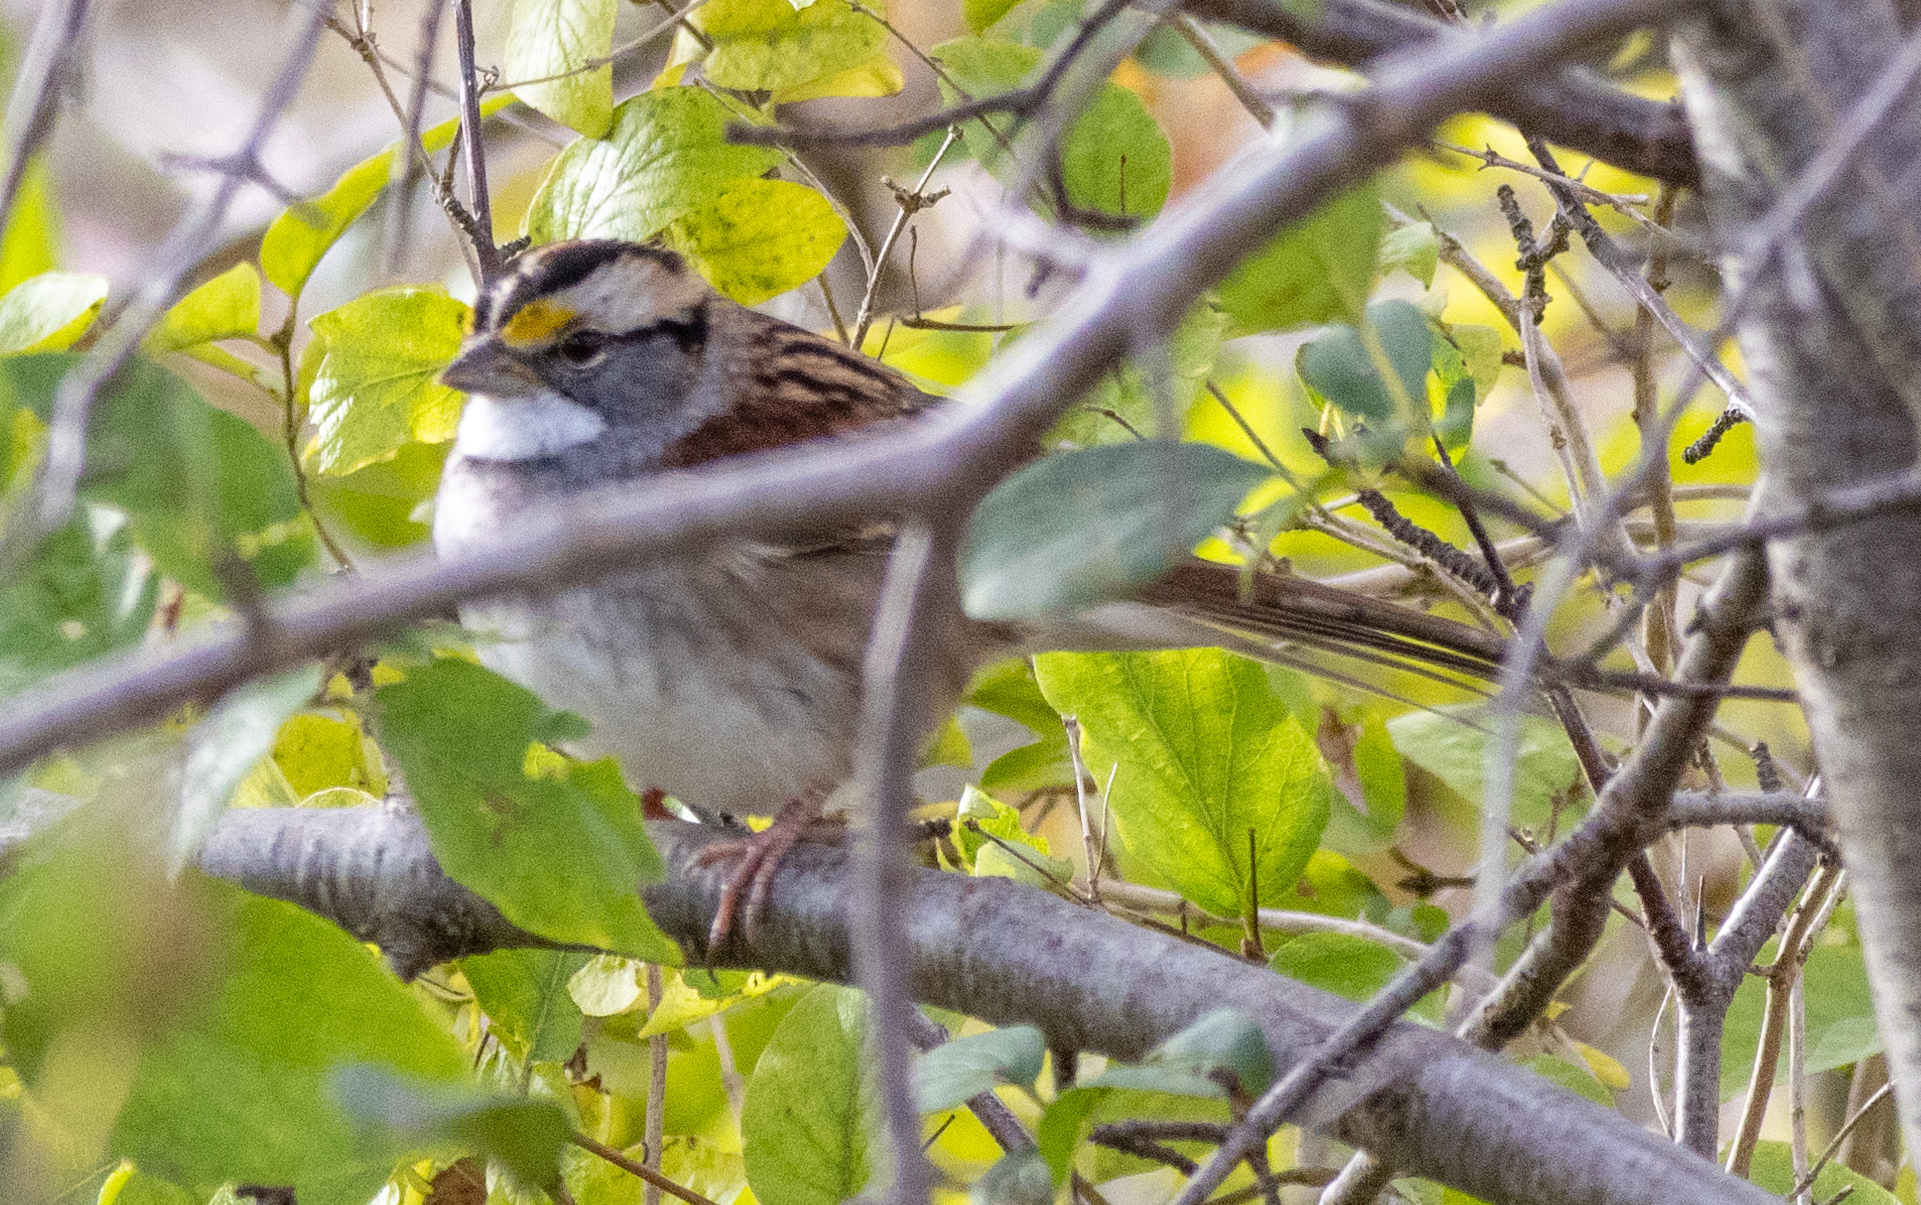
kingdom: Animalia
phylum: Chordata
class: Aves
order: Passeriformes
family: Passerellidae
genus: Zonotrichia
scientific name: Zonotrichia albicollis
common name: White-throated sparrow
